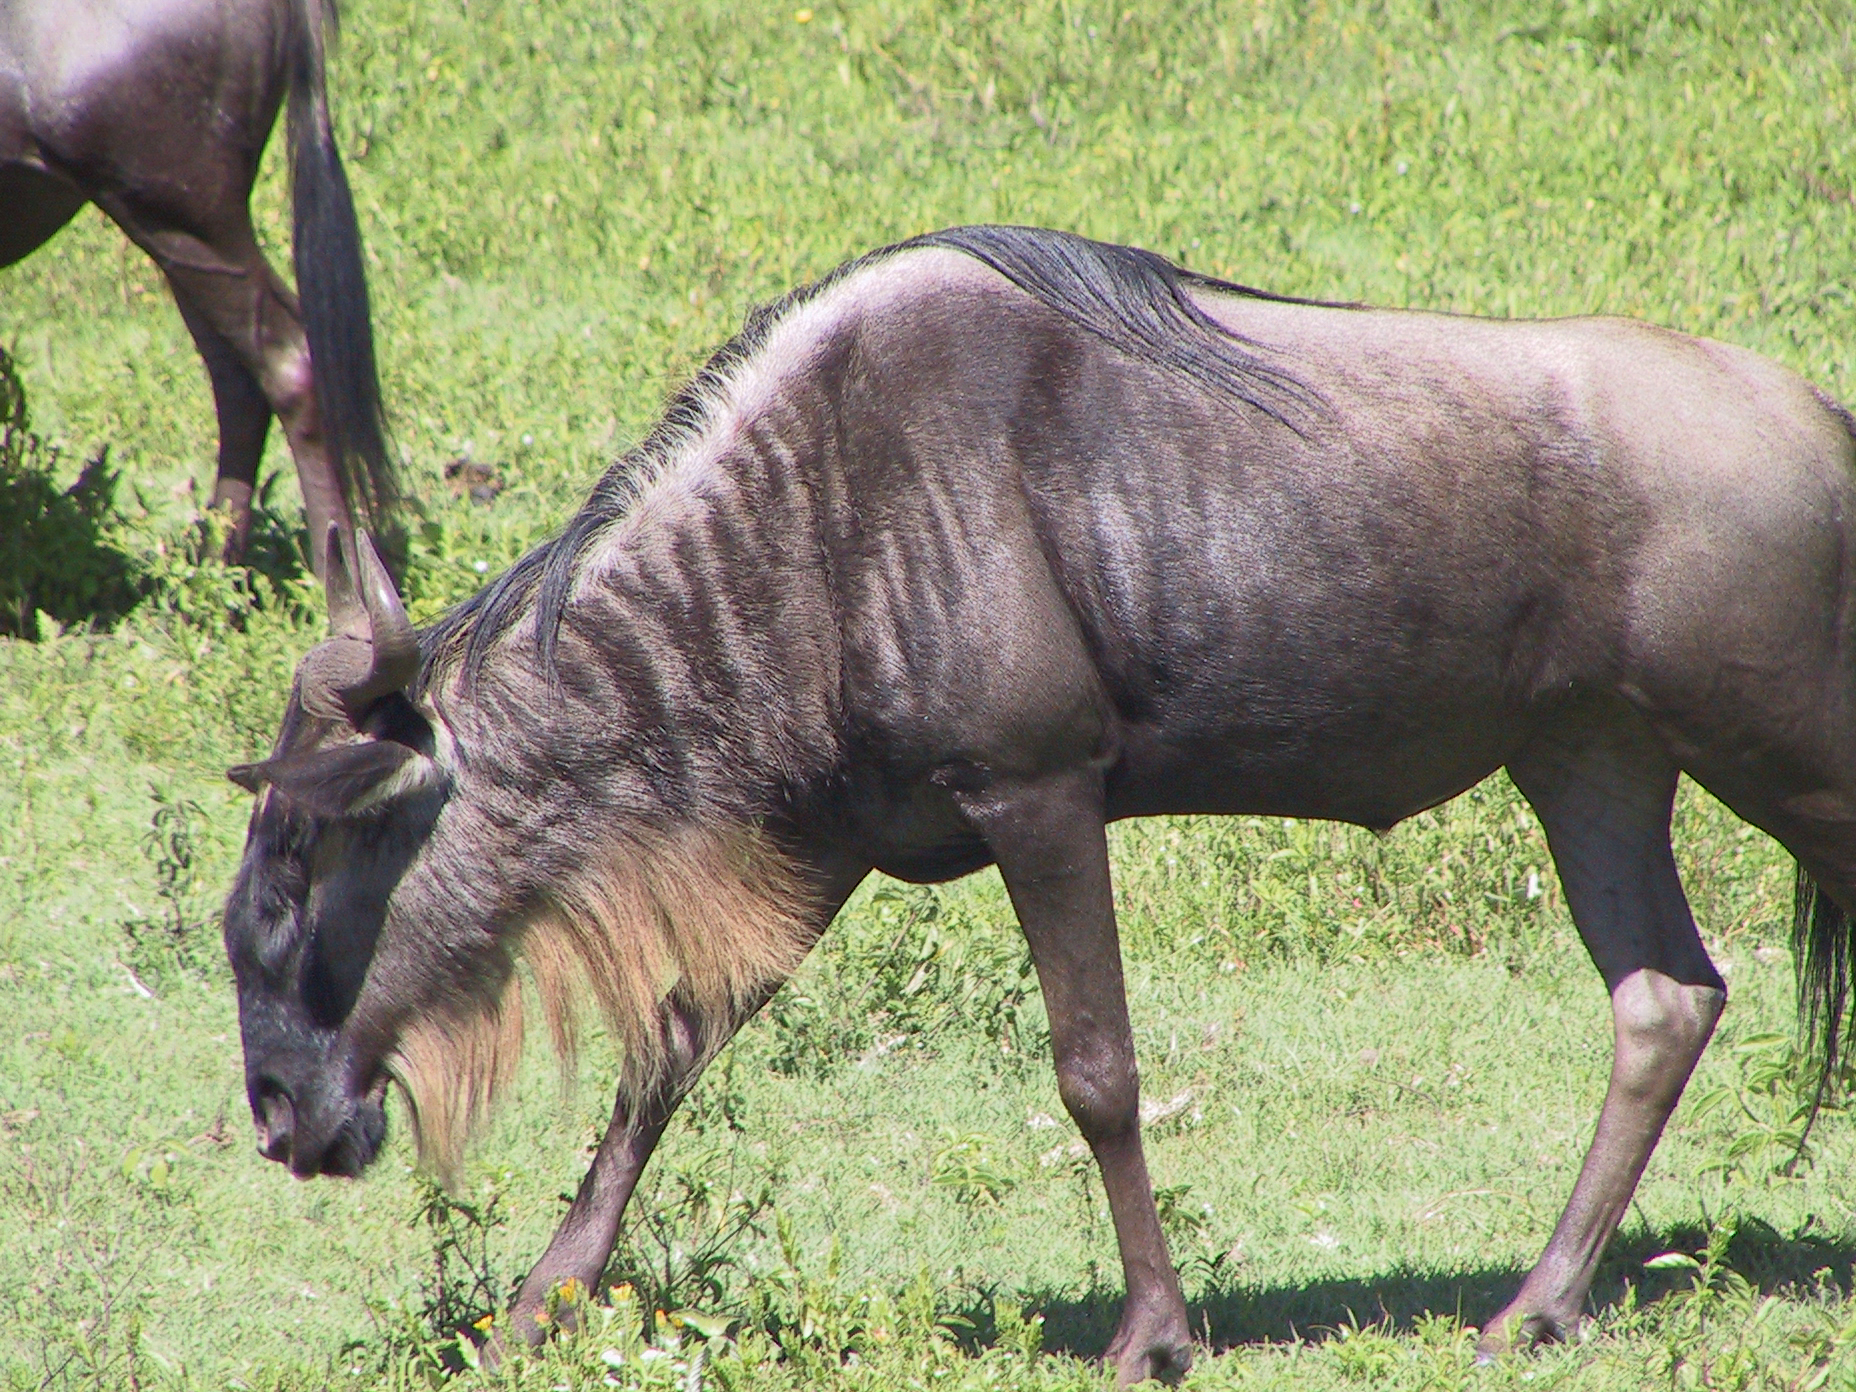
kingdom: Animalia
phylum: Chordata
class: Mammalia
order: Artiodactyla
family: Bovidae
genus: Connochaetes
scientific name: Connochaetes taurinus
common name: Blue wildebeest
